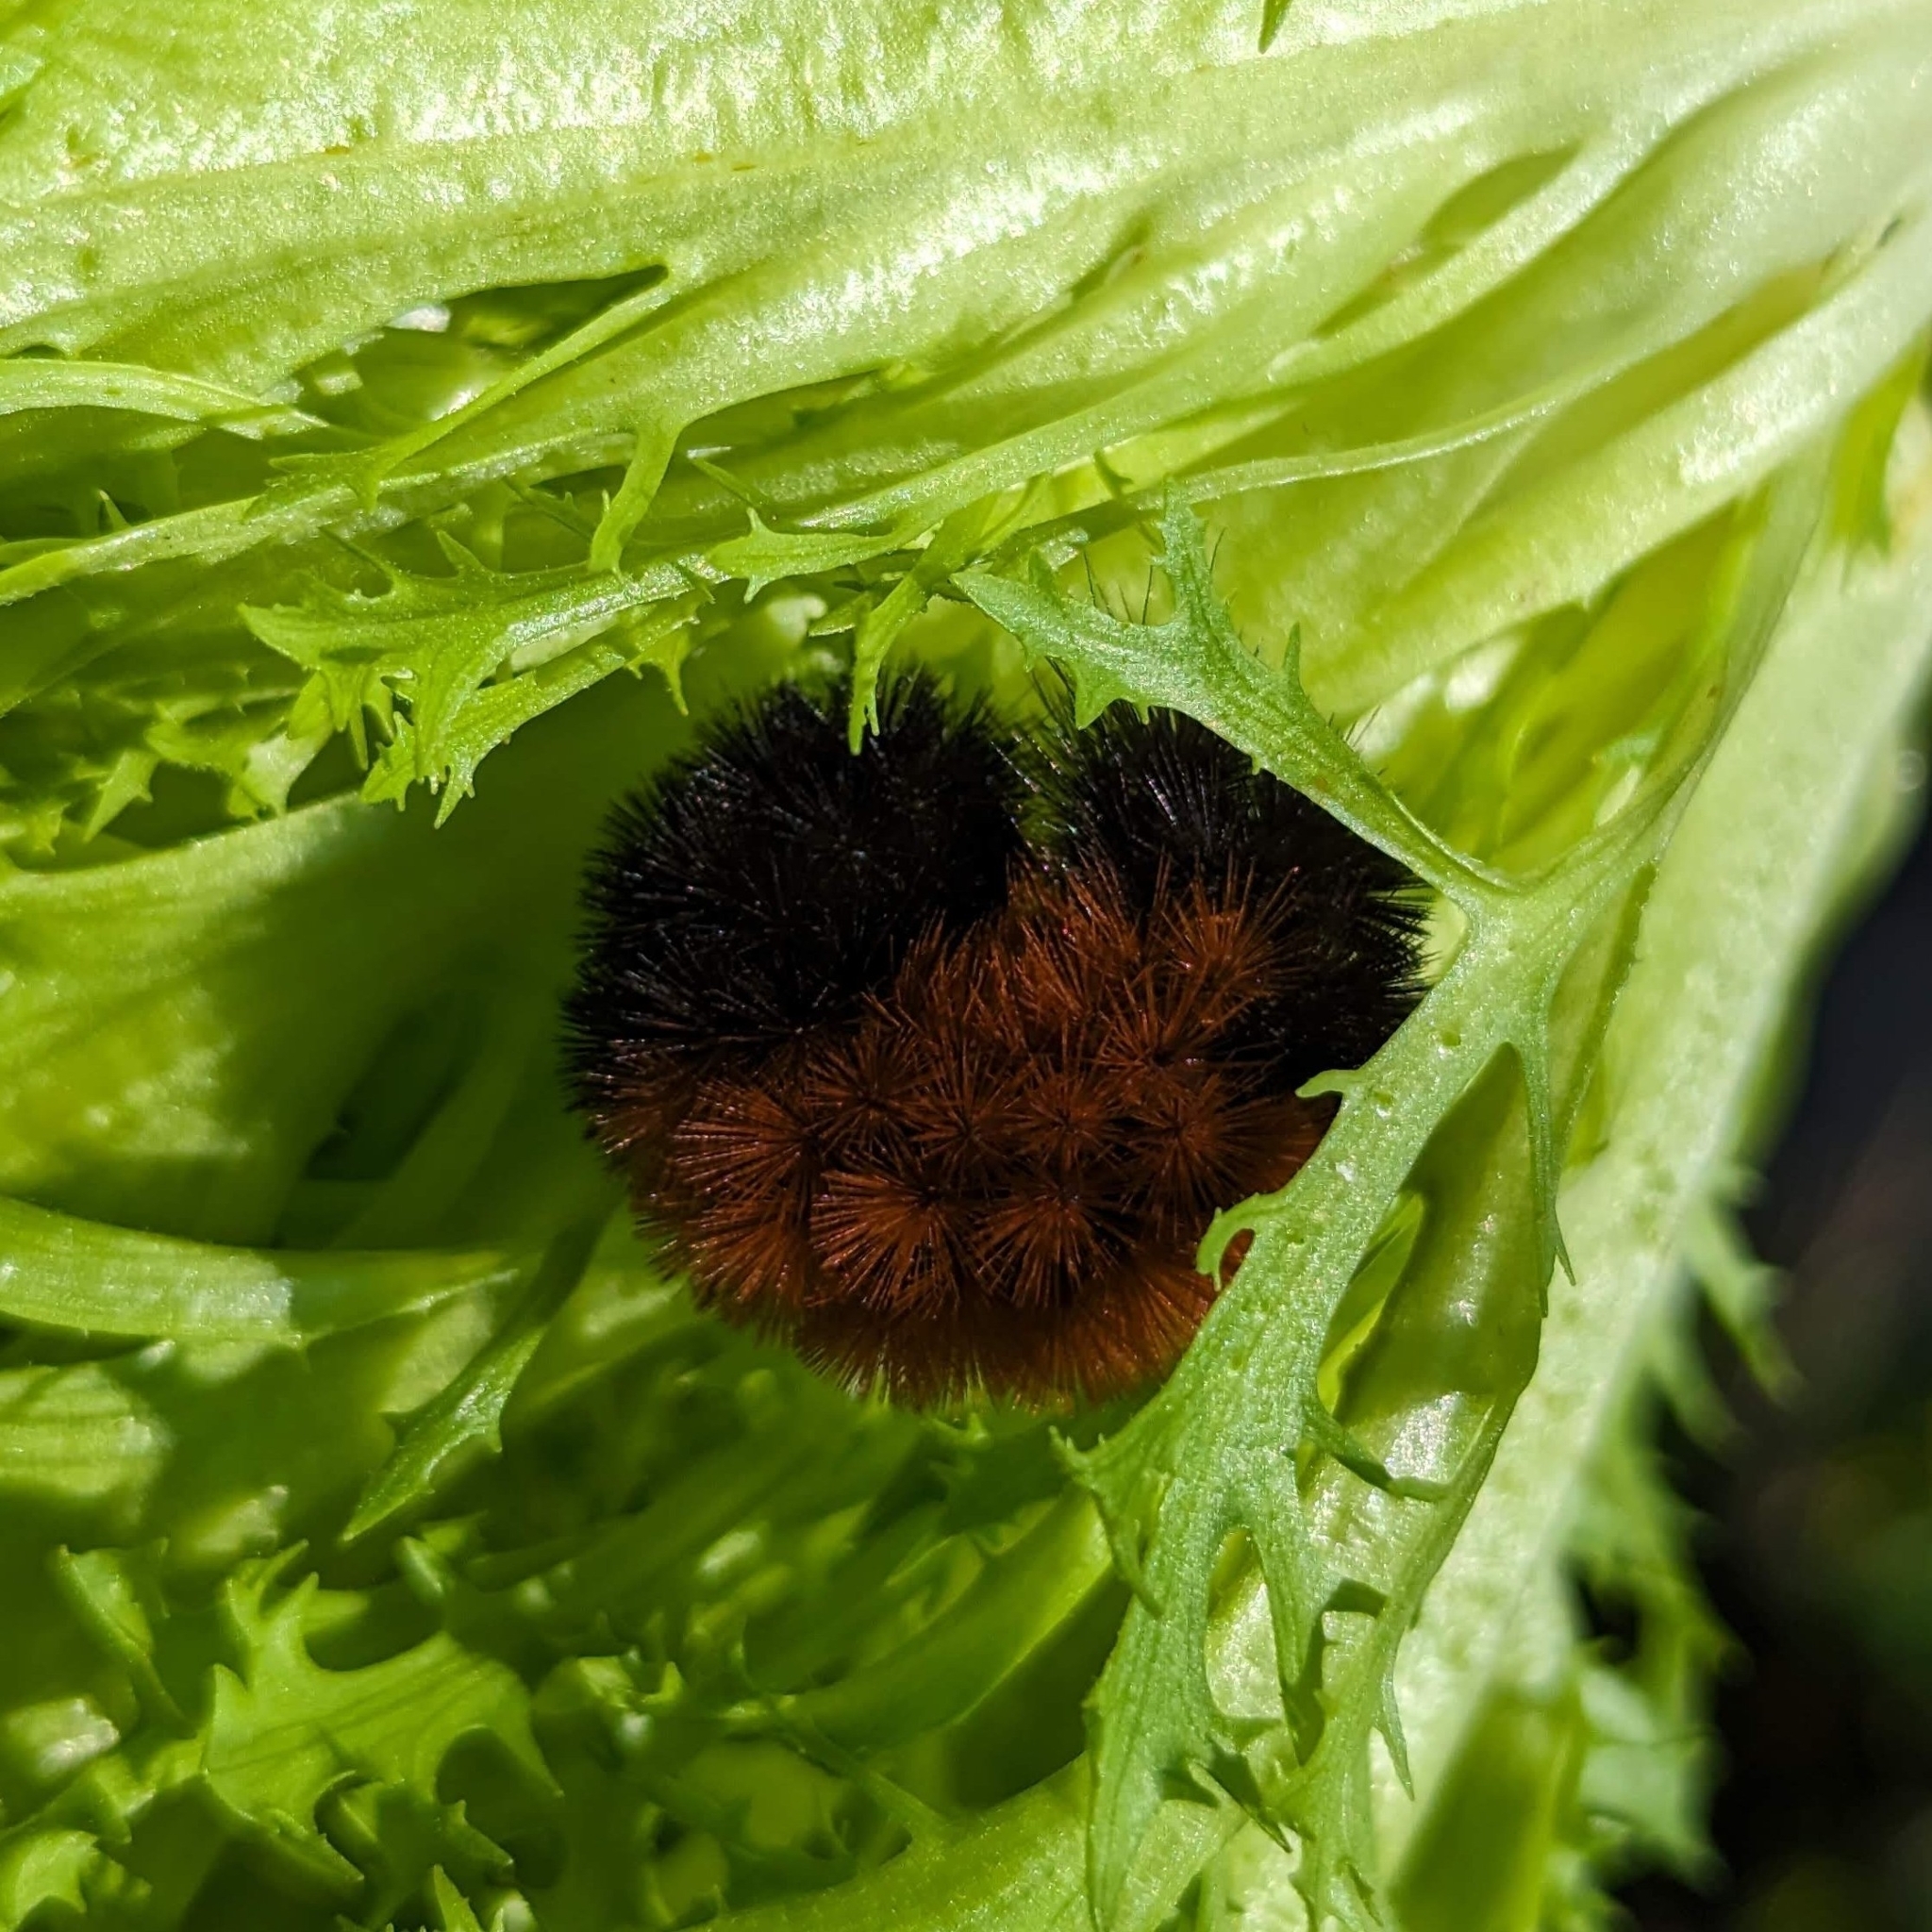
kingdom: Animalia
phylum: Arthropoda
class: Insecta
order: Lepidoptera
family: Erebidae
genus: Pyrrharctia
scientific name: Pyrrharctia isabella
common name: Isabella tiger moth
